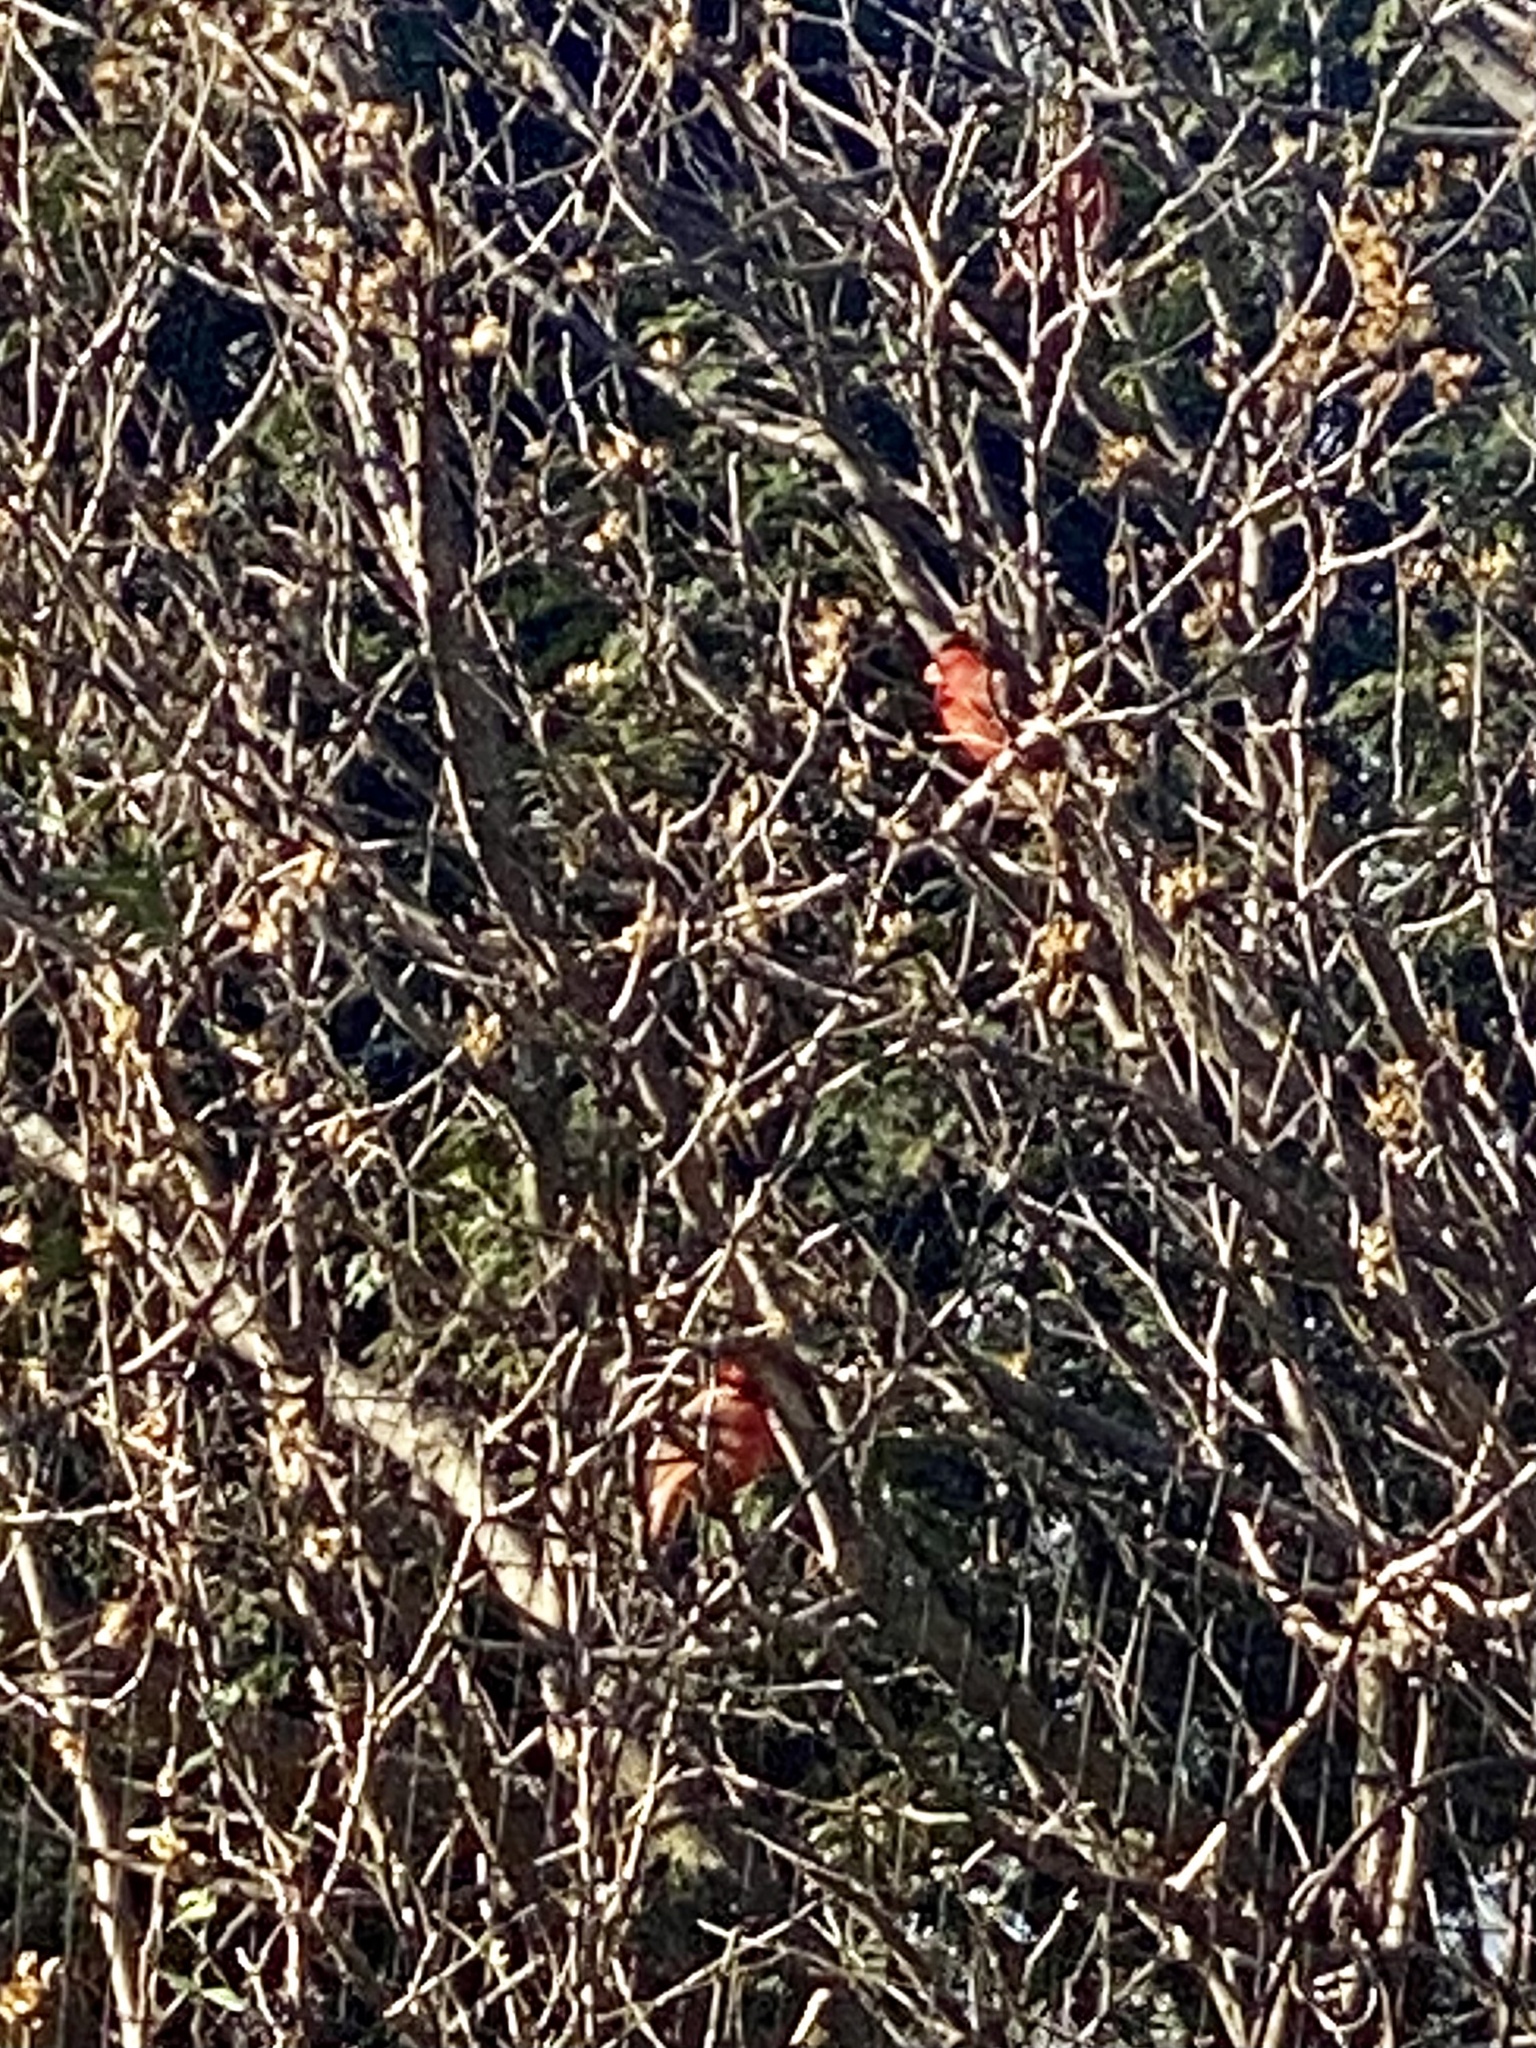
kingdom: Animalia
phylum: Chordata
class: Aves
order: Passeriformes
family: Cardinalidae
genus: Cardinalis
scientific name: Cardinalis cardinalis
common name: Northern cardinal
